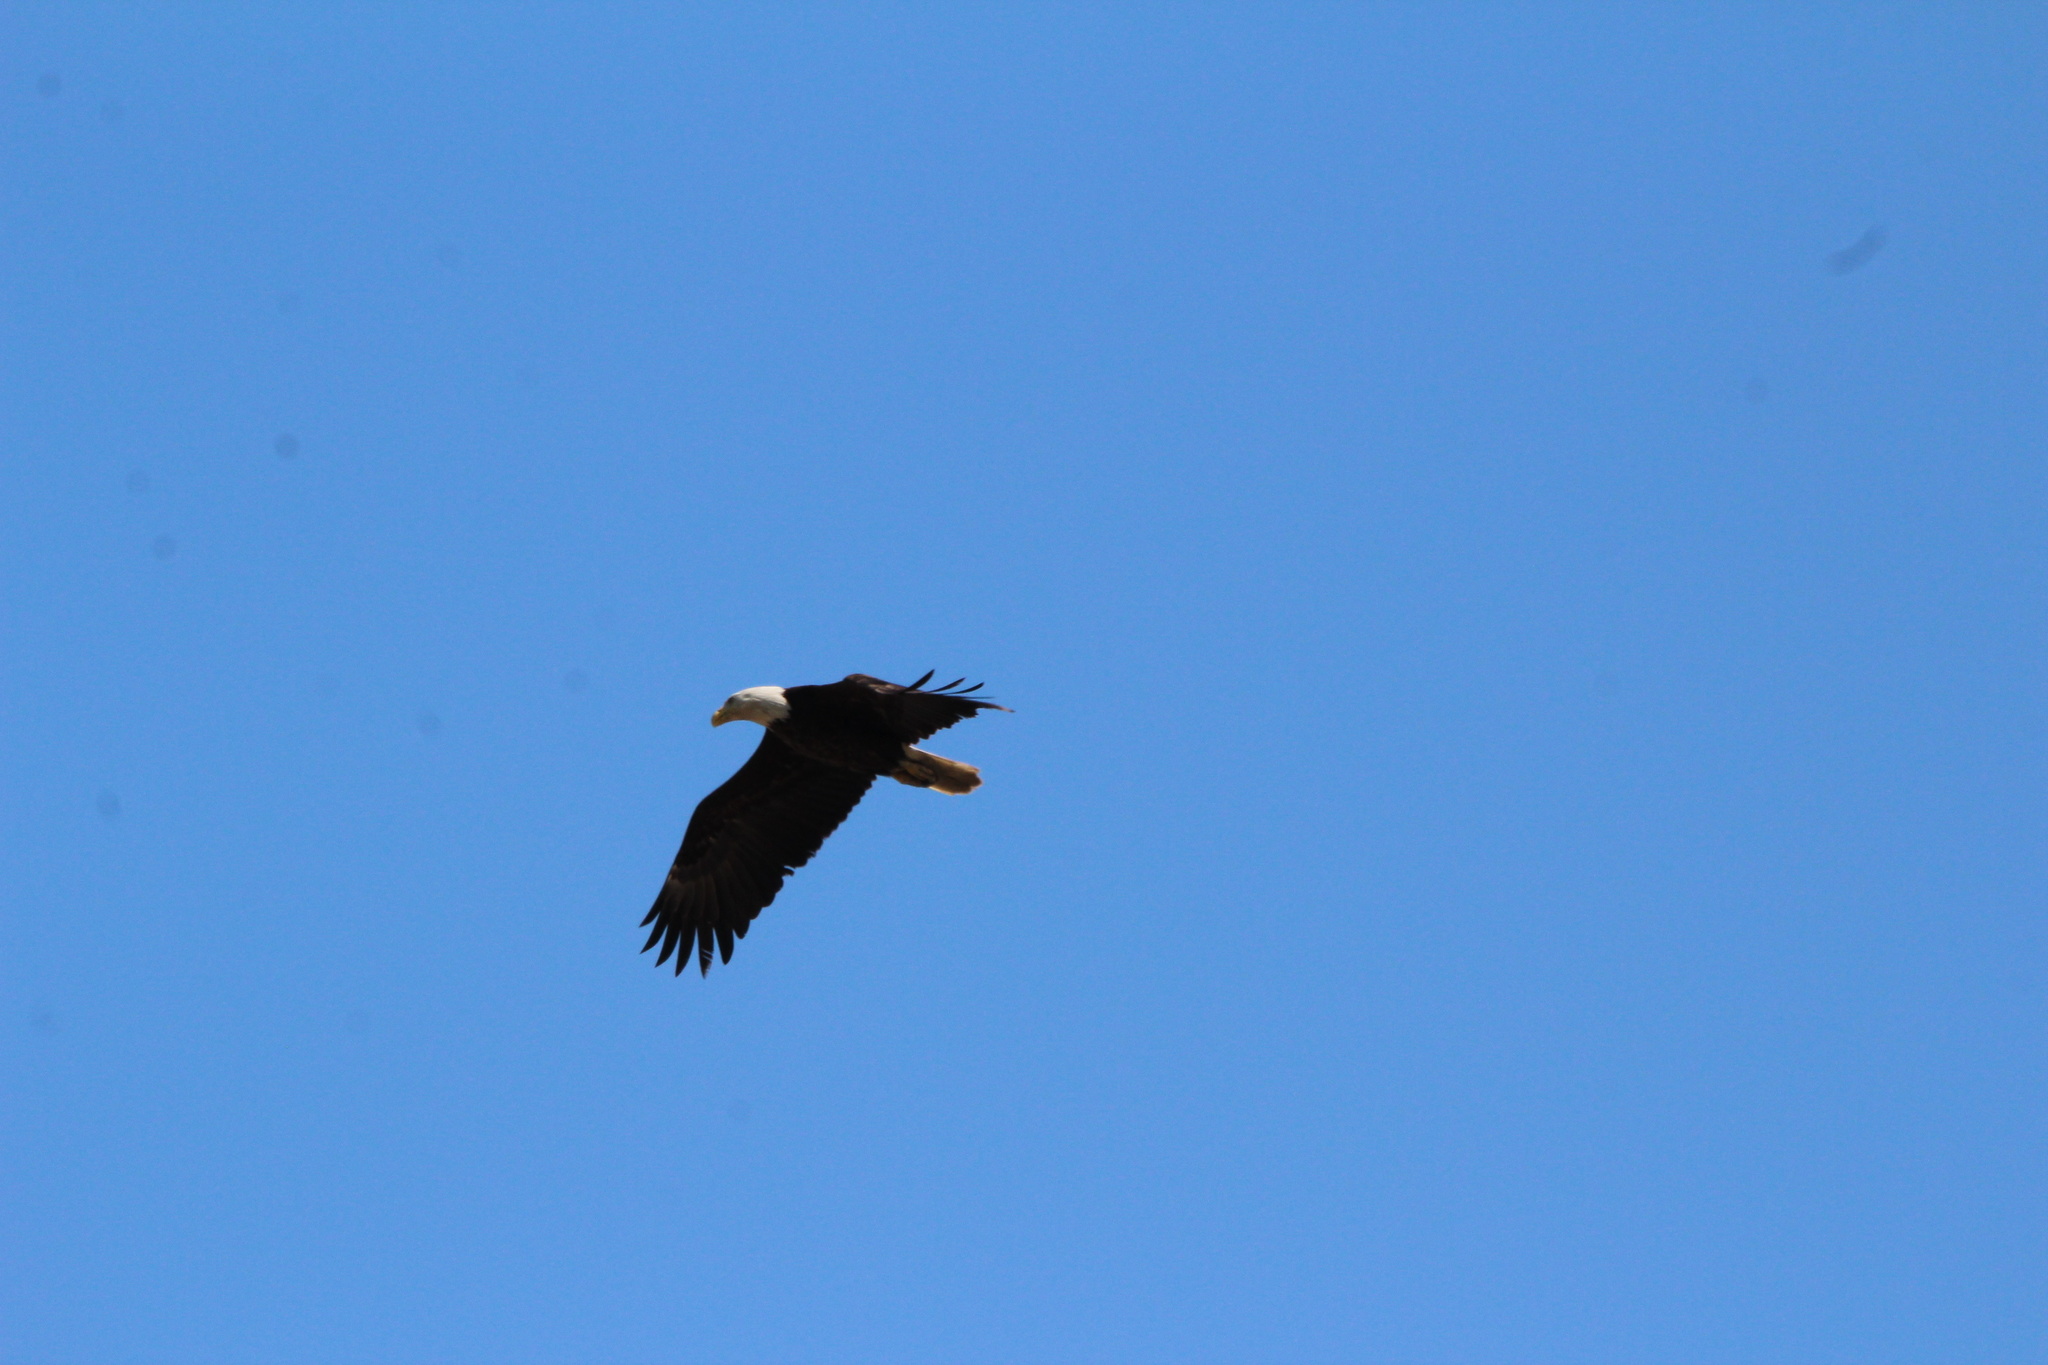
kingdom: Animalia
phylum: Chordata
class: Aves
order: Accipitriformes
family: Accipitridae
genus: Haliaeetus
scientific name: Haliaeetus leucocephalus
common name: Bald eagle
